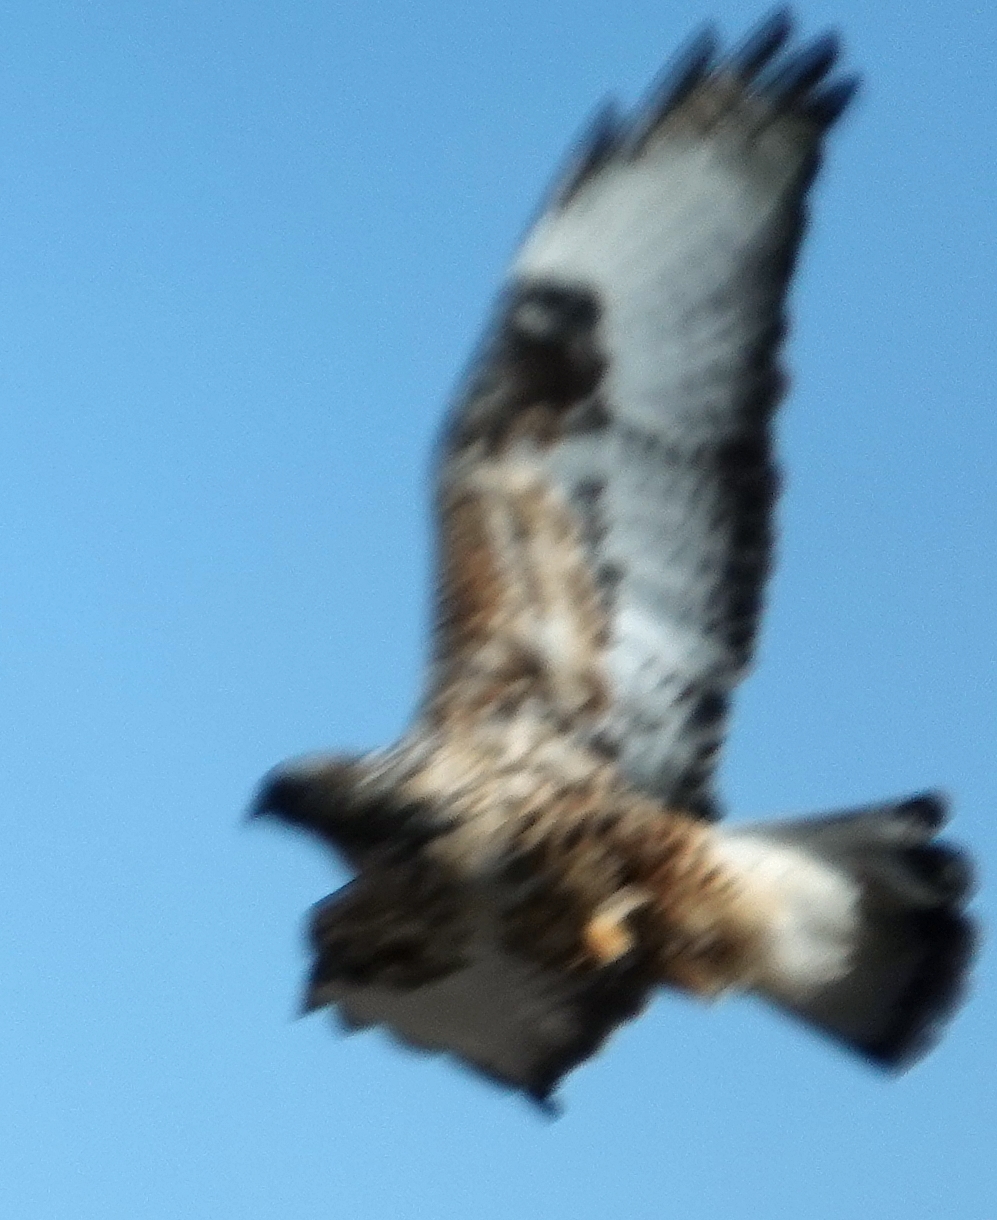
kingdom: Animalia
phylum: Chordata
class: Aves
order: Accipitriformes
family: Accipitridae
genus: Buteo
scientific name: Buteo lagopus
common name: Rough-legged buzzard
